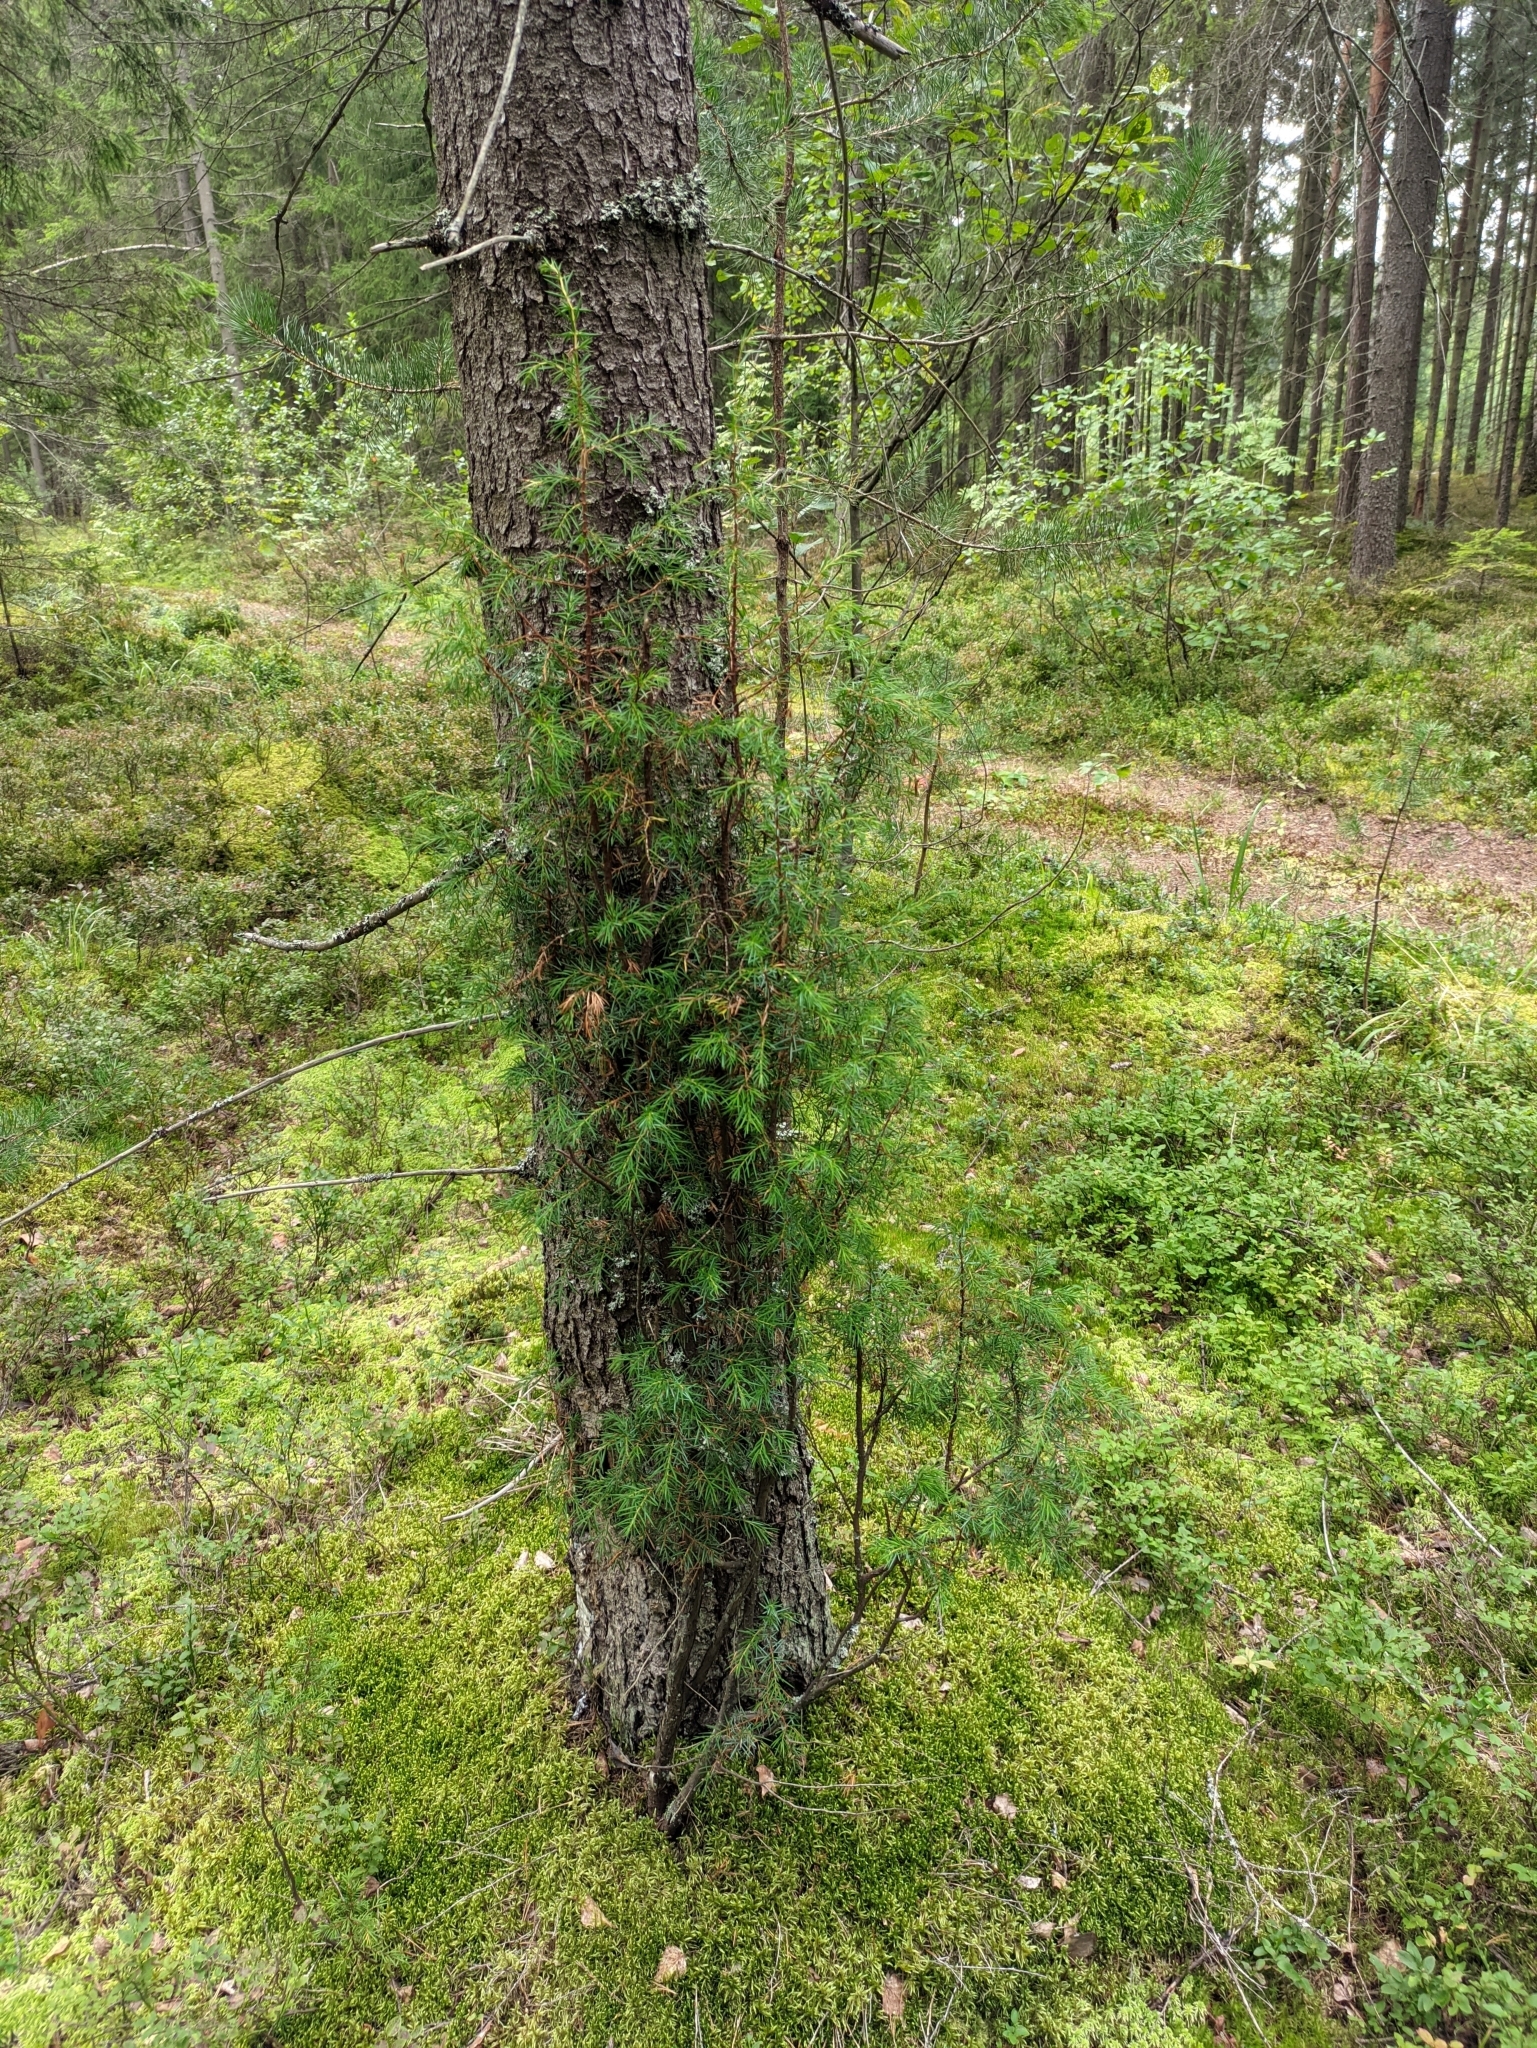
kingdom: Plantae
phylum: Tracheophyta
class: Pinopsida
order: Pinales
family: Cupressaceae
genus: Juniperus
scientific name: Juniperus communis
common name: Common juniper
